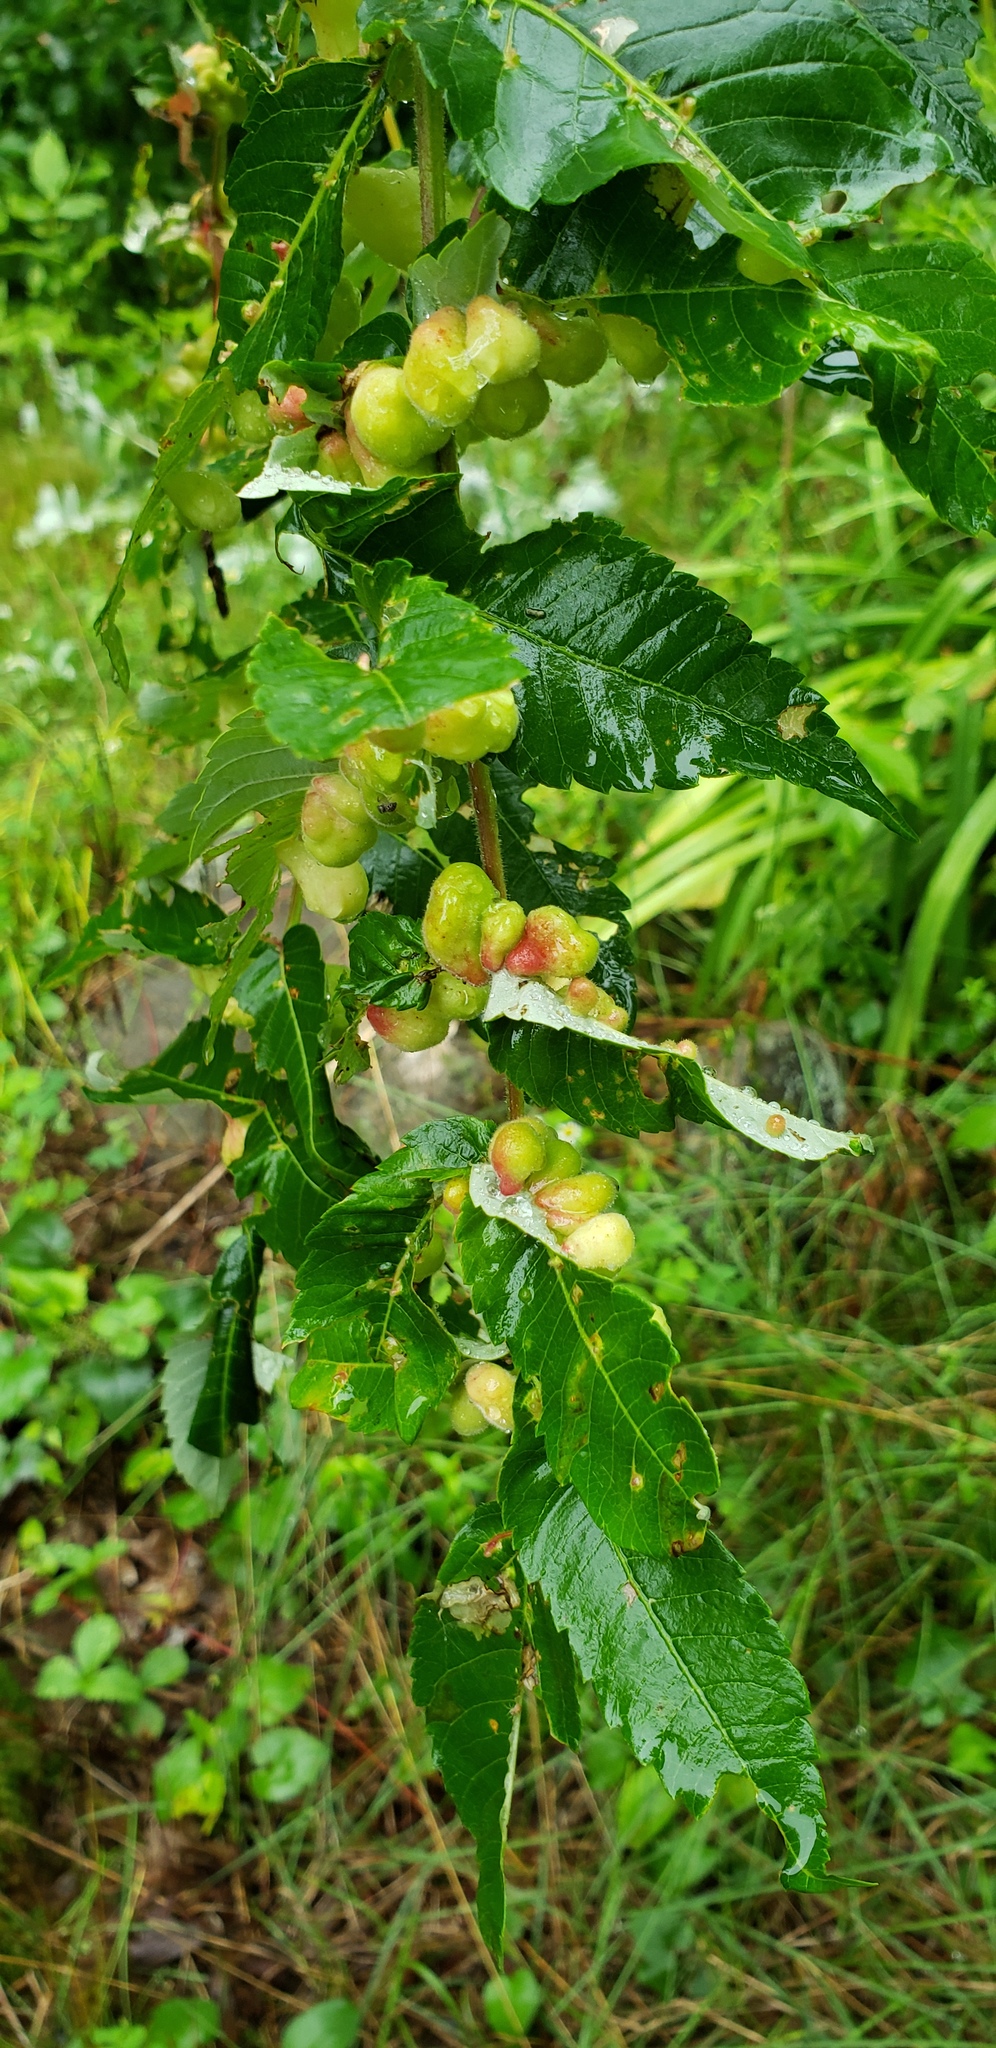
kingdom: Animalia
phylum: Arthropoda
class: Insecta
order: Hemiptera
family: Aphididae
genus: Melaphis
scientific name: Melaphis rhois
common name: Sumac gall aphid
